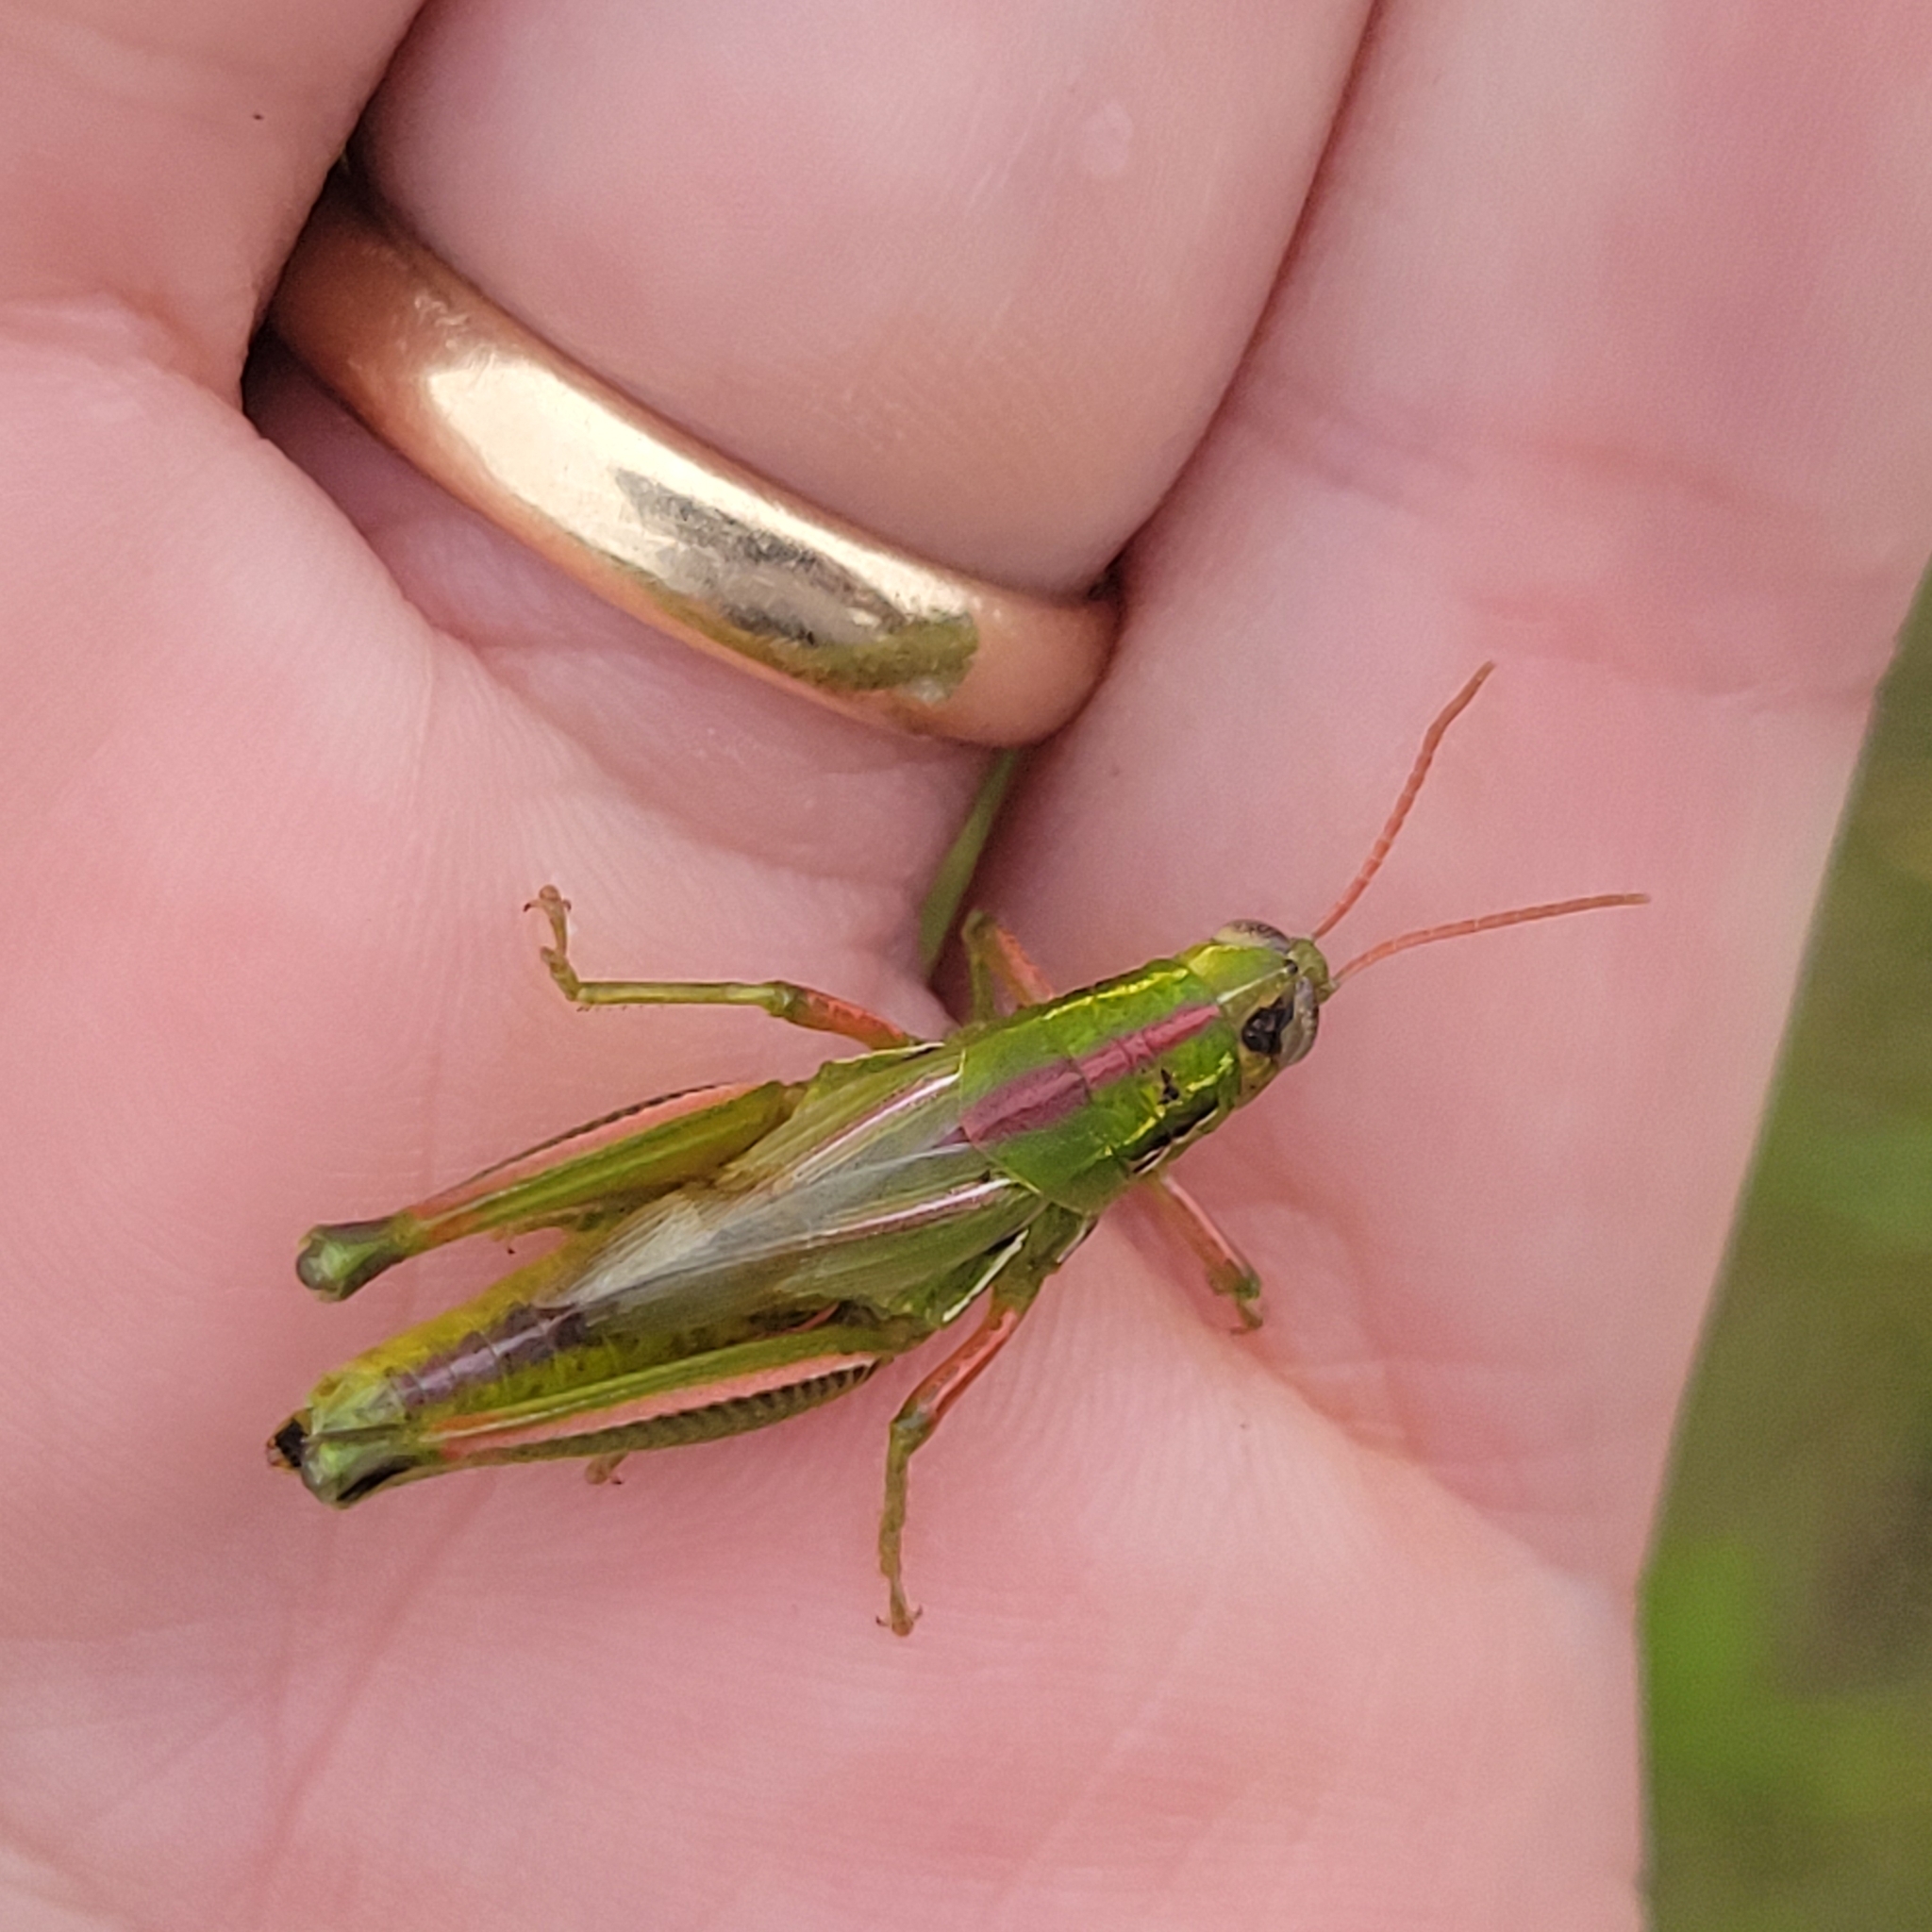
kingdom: Animalia
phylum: Arthropoda
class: Insecta
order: Orthoptera
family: Acrididae
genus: Hesperotettix
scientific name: Hesperotettix viridis
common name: Meadow purple-striped grasshopper
